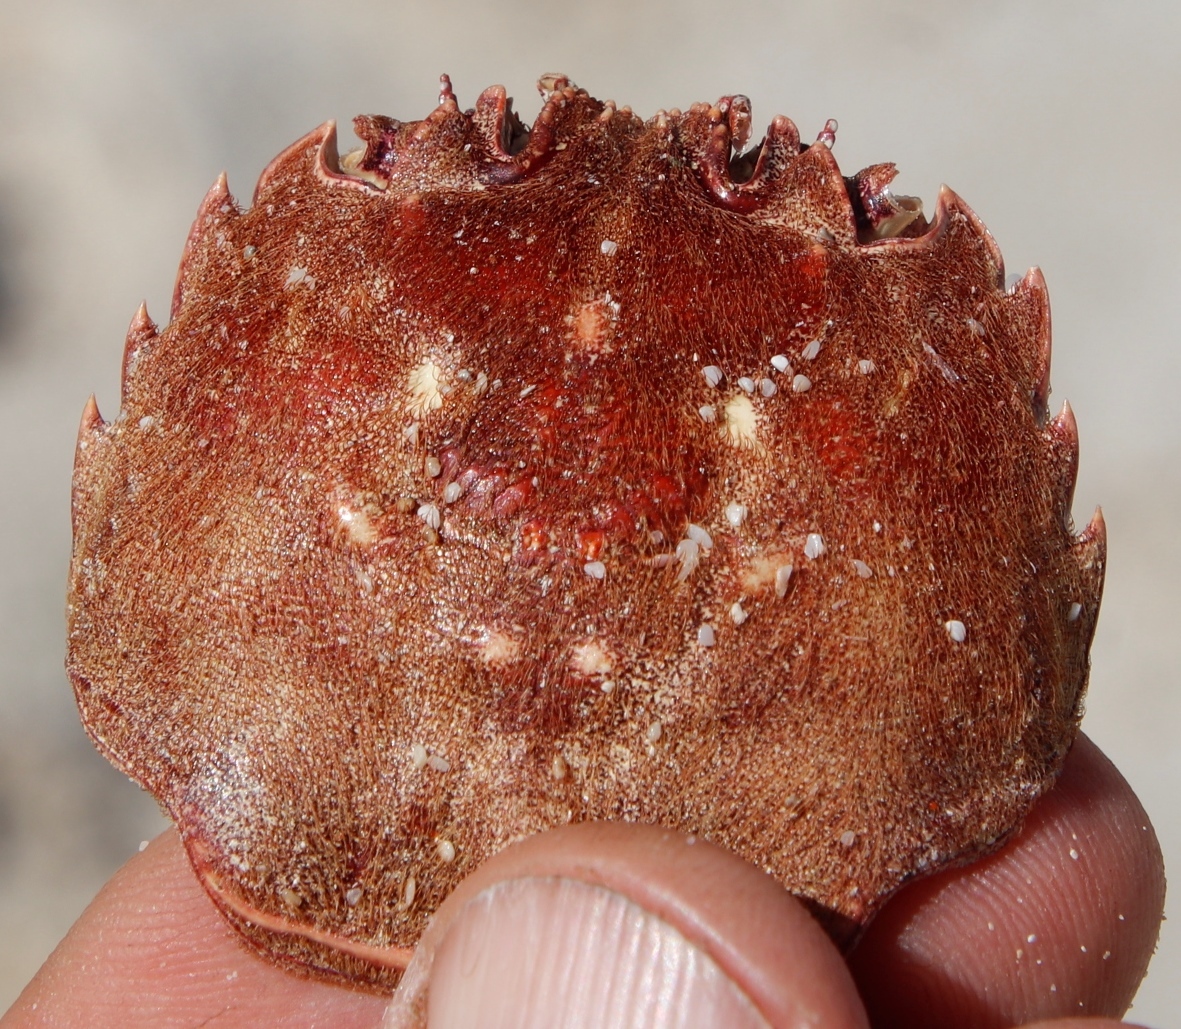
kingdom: Animalia
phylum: Arthropoda
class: Malacostraca
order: Decapoda
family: Plagusiidae
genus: Guinusia
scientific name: Guinusia chabrus
